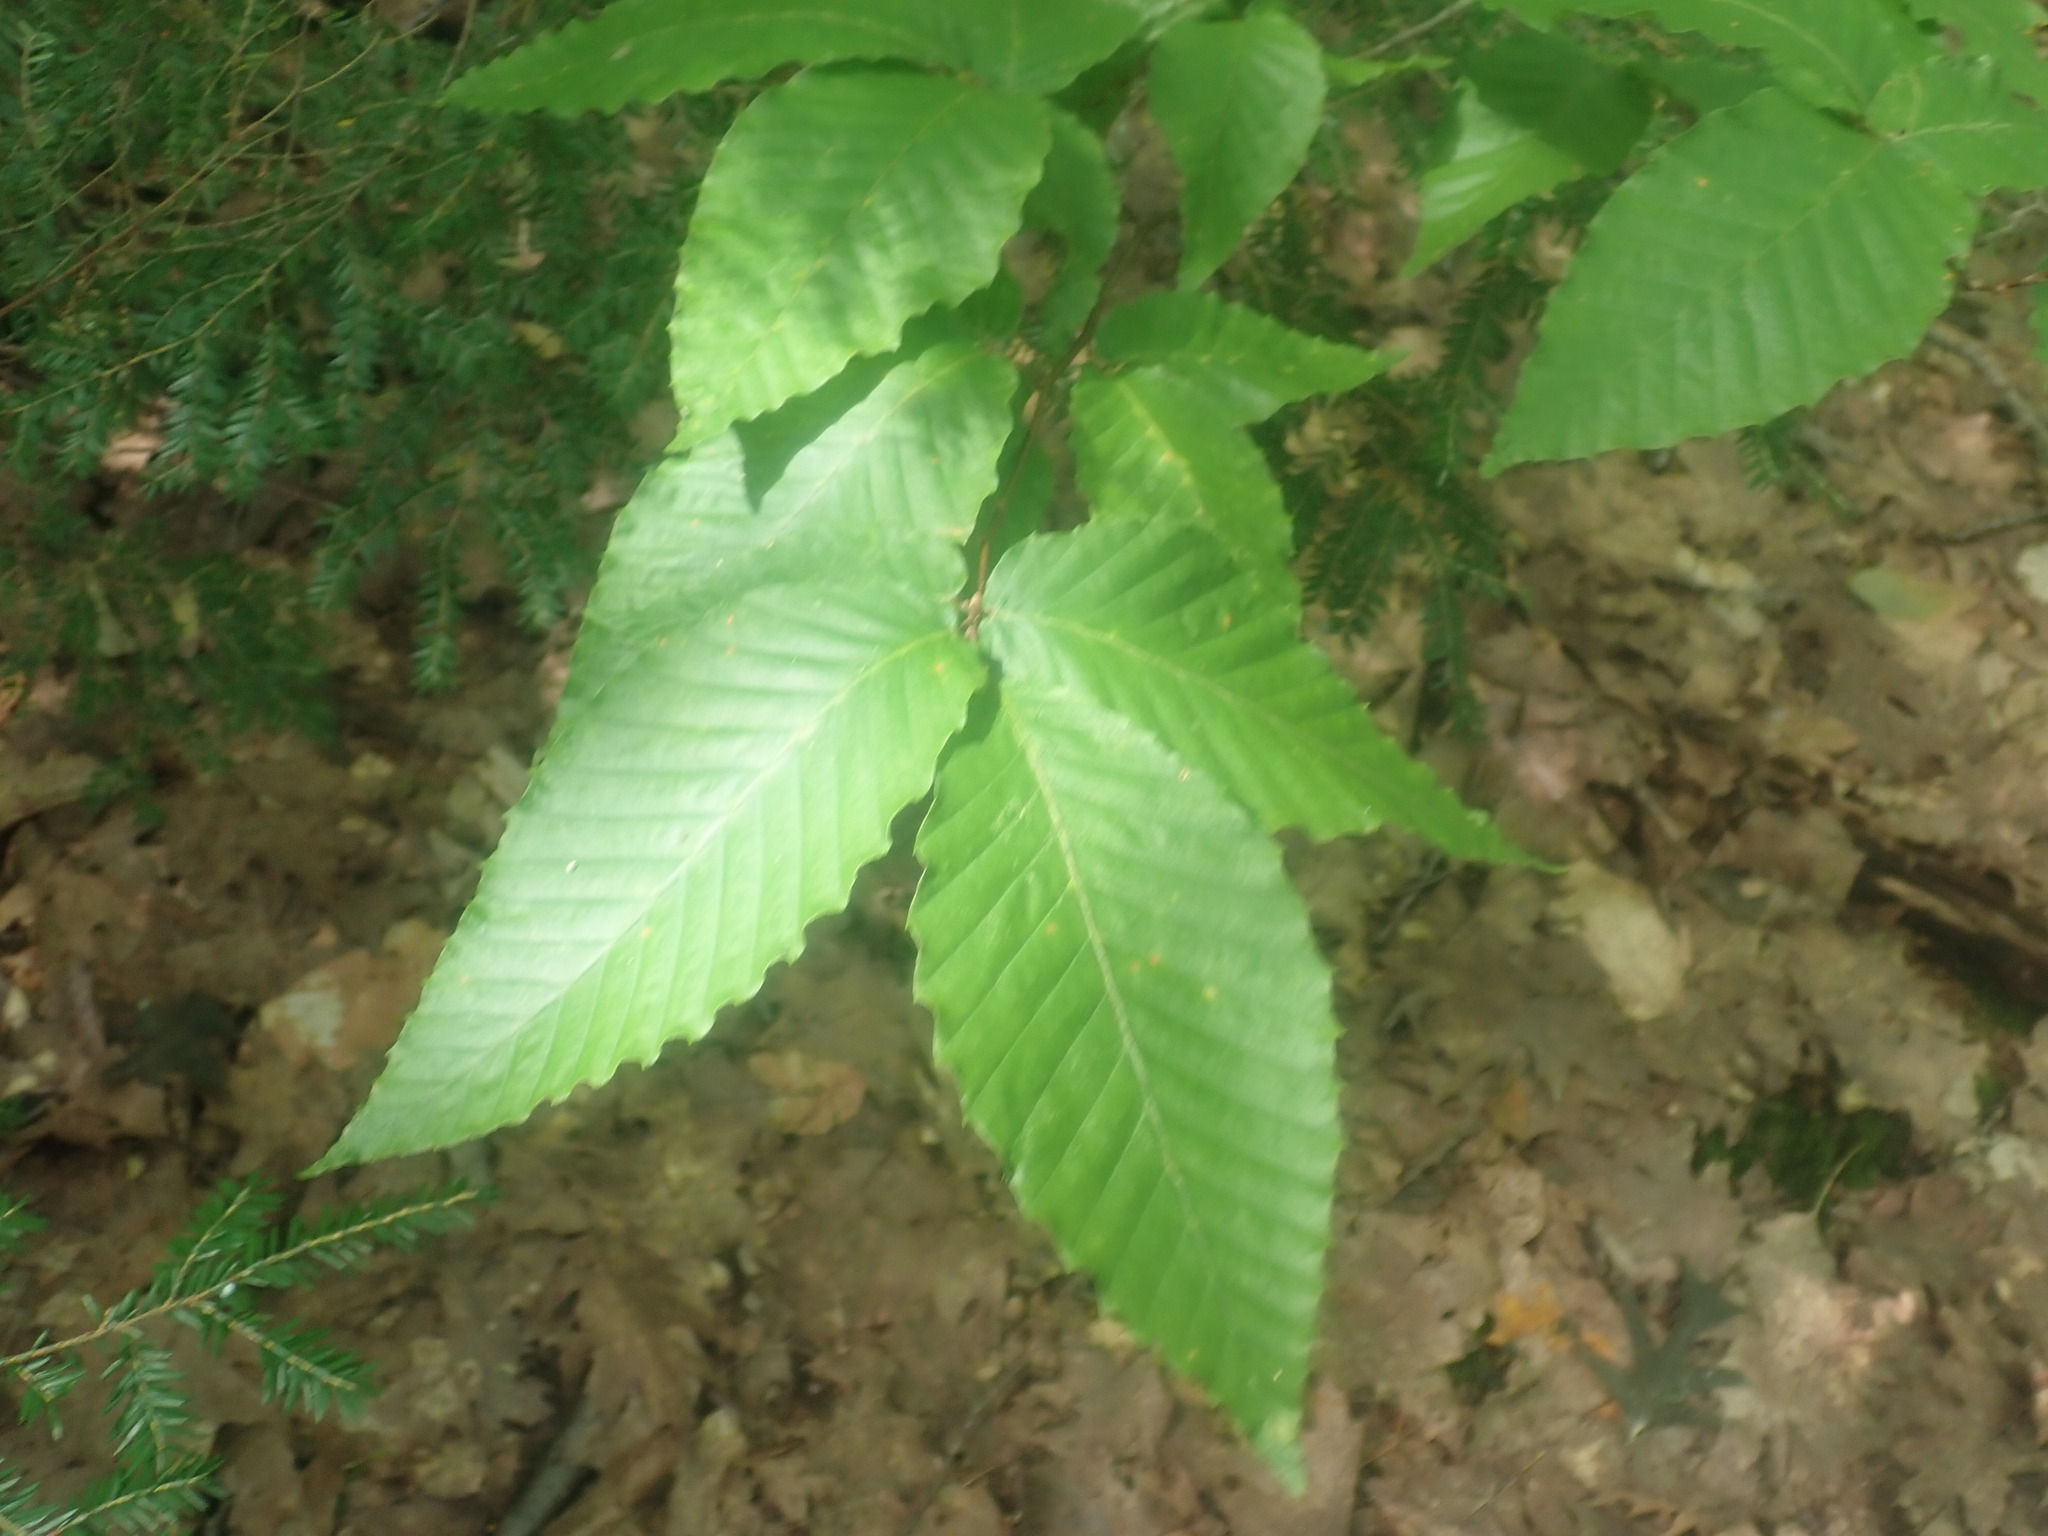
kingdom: Plantae
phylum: Tracheophyta
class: Magnoliopsida
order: Fagales
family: Fagaceae
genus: Fagus
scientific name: Fagus grandifolia
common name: American beech
